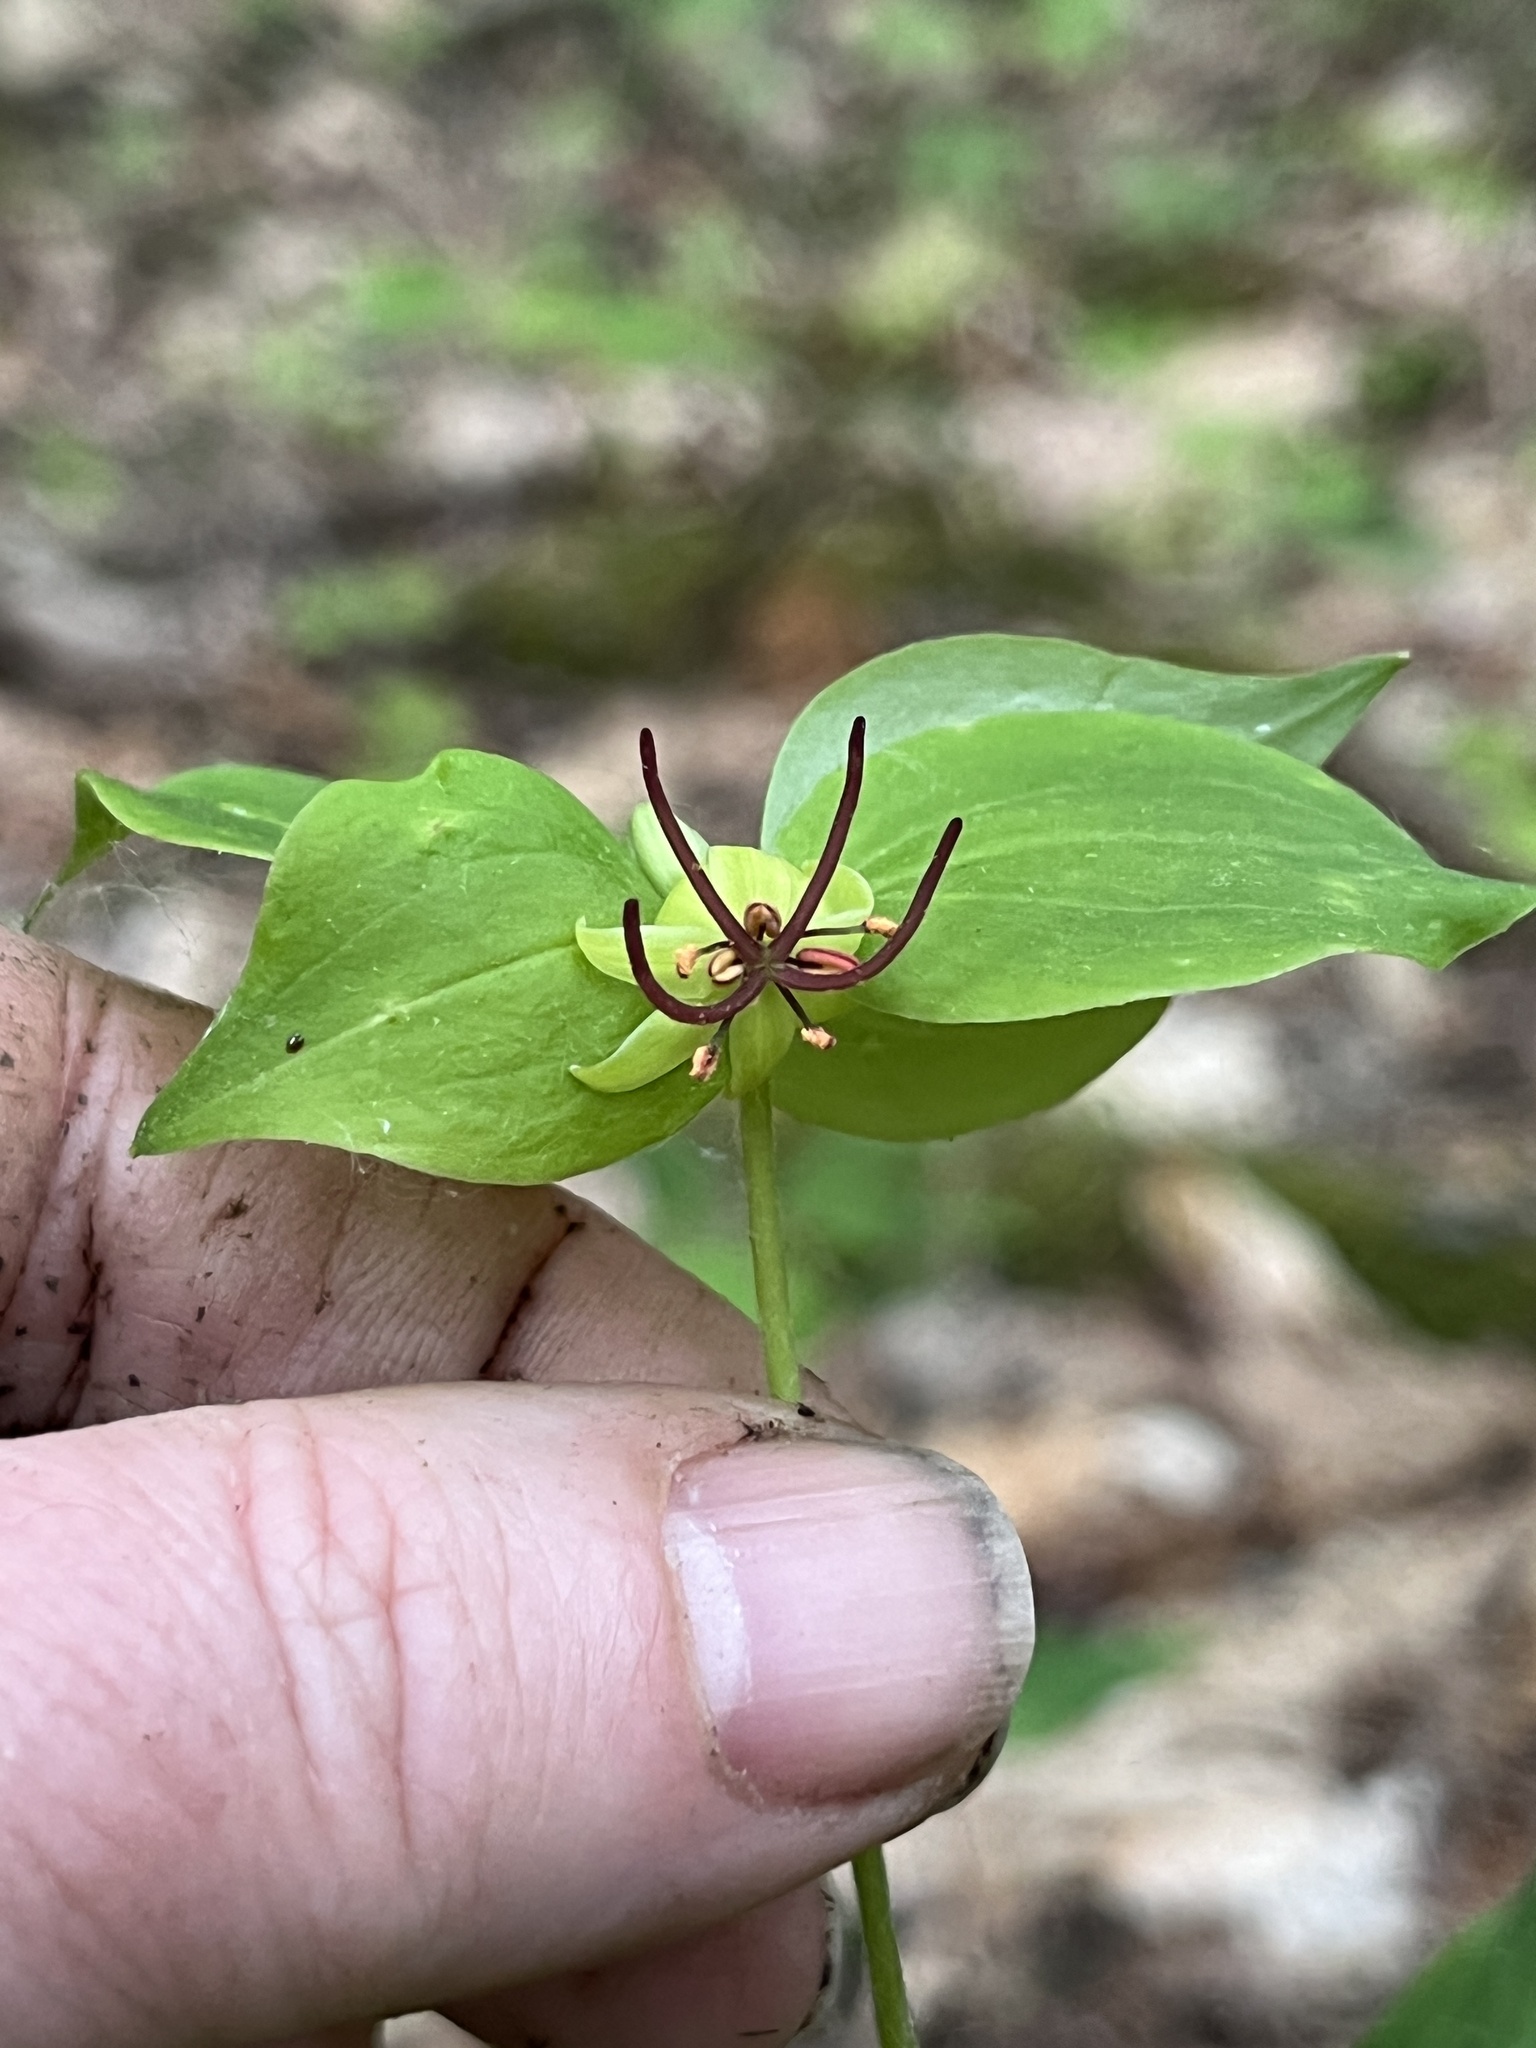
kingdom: Plantae
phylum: Tracheophyta
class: Liliopsida
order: Liliales
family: Liliaceae
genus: Medeola
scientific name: Medeola virginiana
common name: Indian cucumber-root
